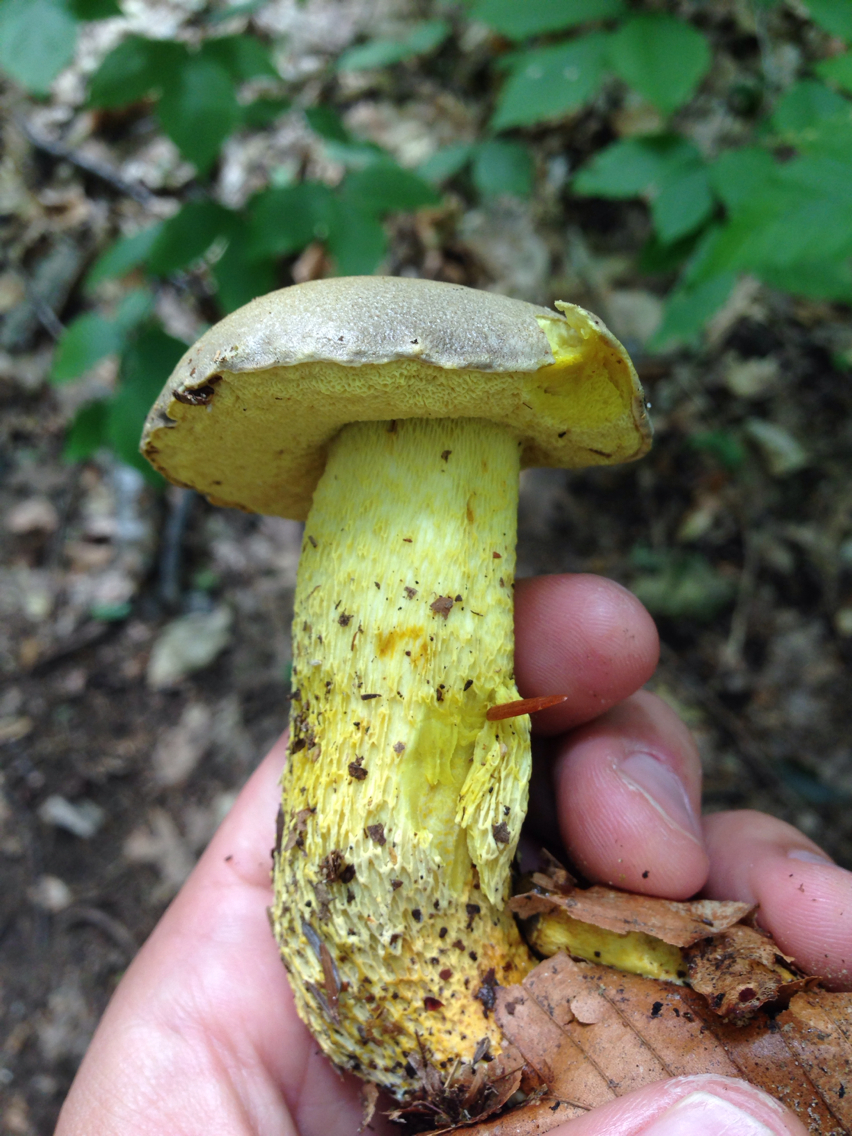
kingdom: Fungi
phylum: Basidiomycota
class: Agaricomycetes
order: Boletales
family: Boletaceae
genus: Retiboletus
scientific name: Retiboletus ornatipes
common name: Ornate-stalked bolete
